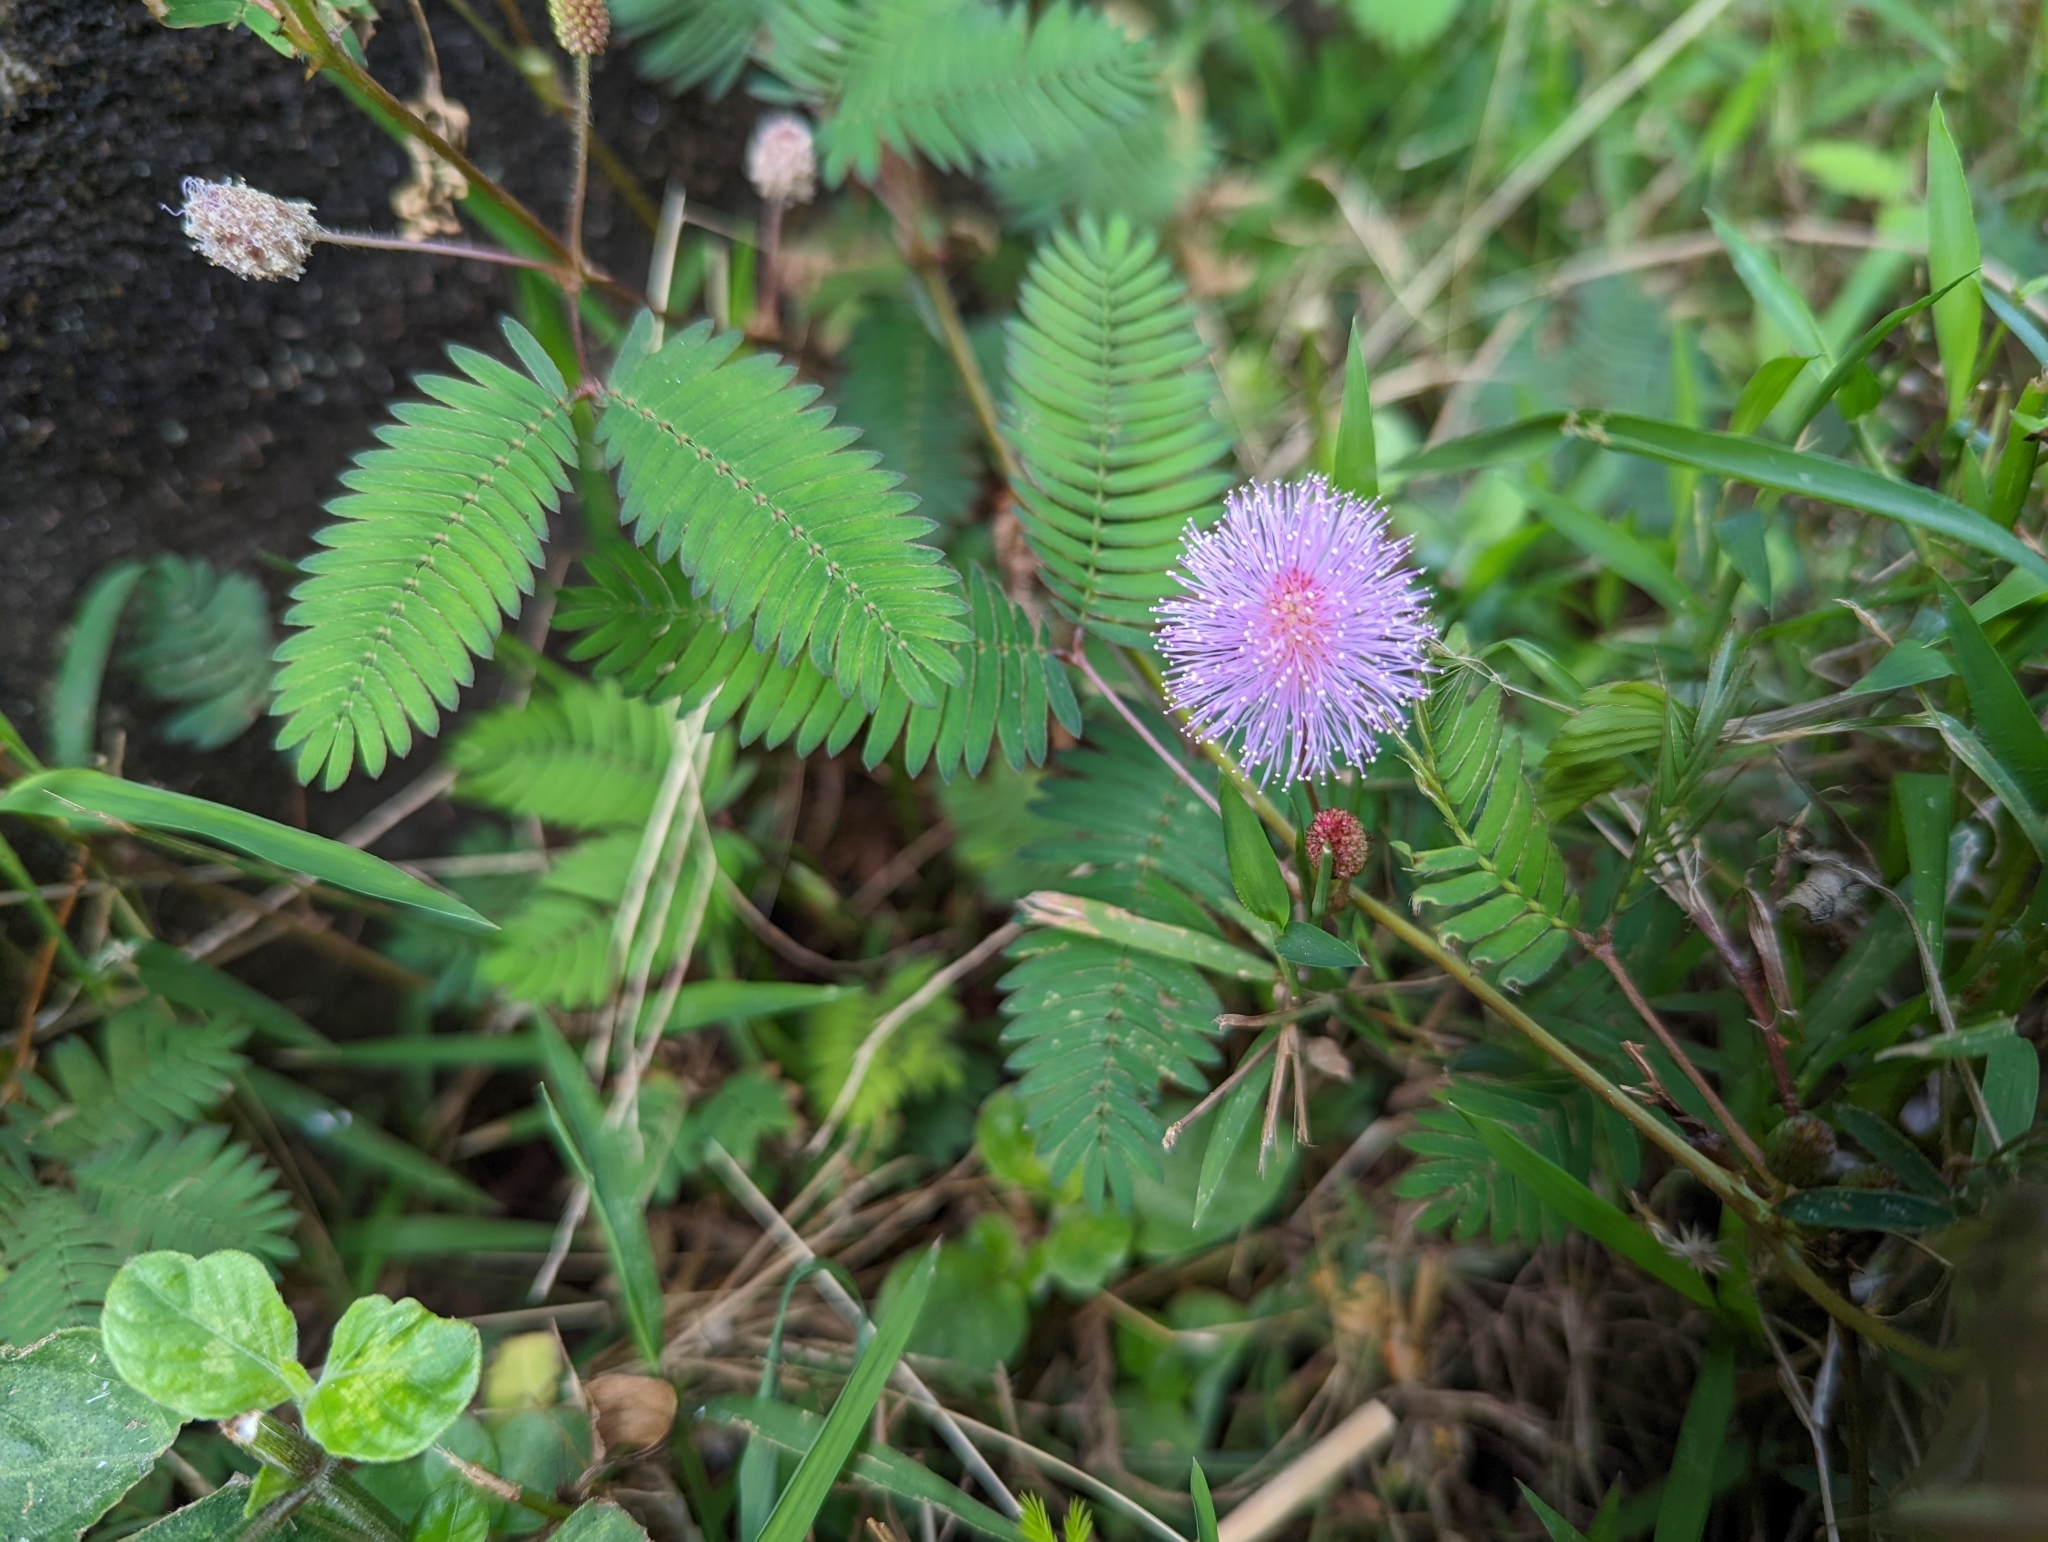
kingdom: Plantae
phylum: Tracheophyta
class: Magnoliopsida
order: Fabales
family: Fabaceae
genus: Mimosa
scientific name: Mimosa pudica
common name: Sensitive plant
